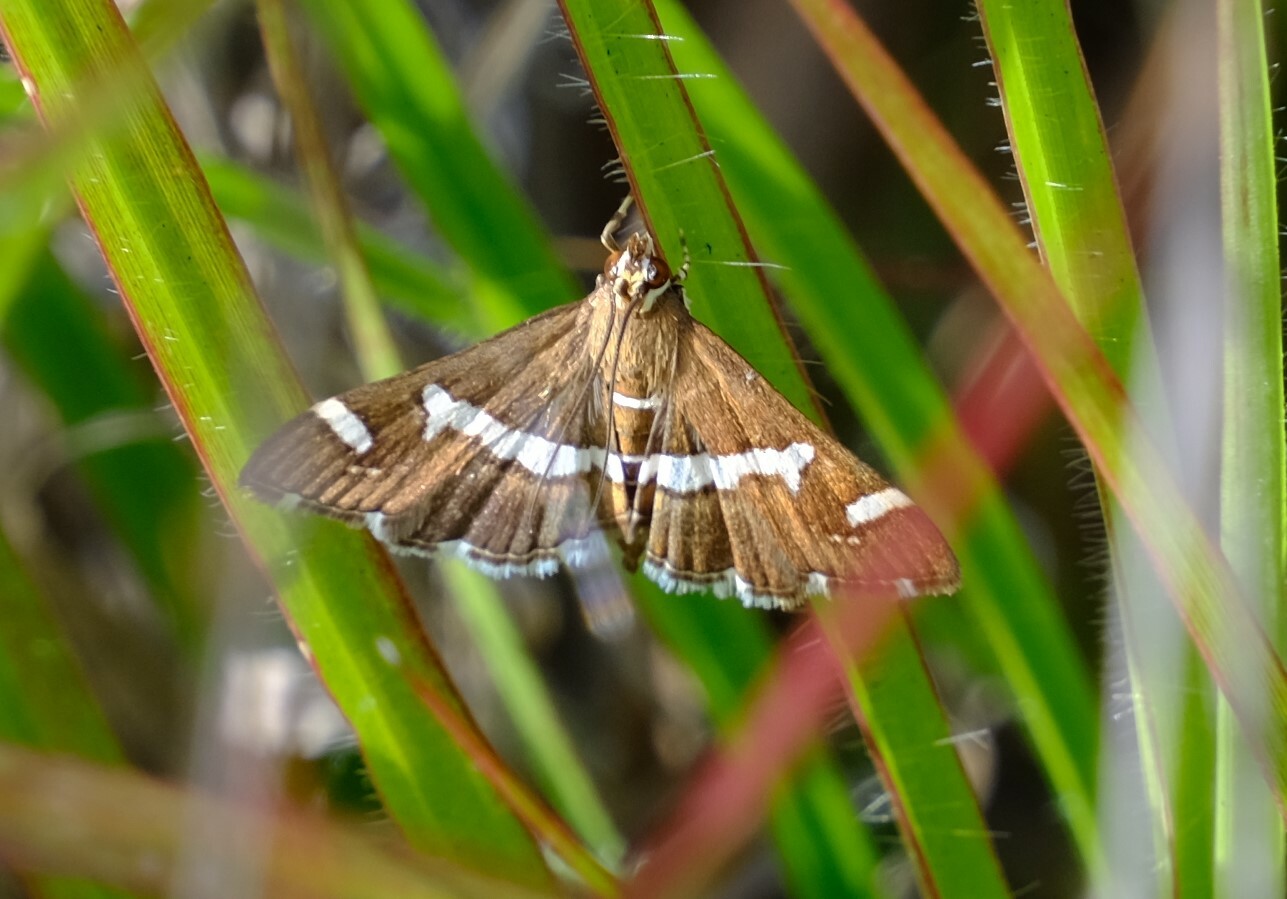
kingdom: Animalia
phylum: Arthropoda
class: Insecta
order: Lepidoptera
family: Crambidae
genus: Spoladea
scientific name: Spoladea recurvalis
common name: Beet webworm moth
